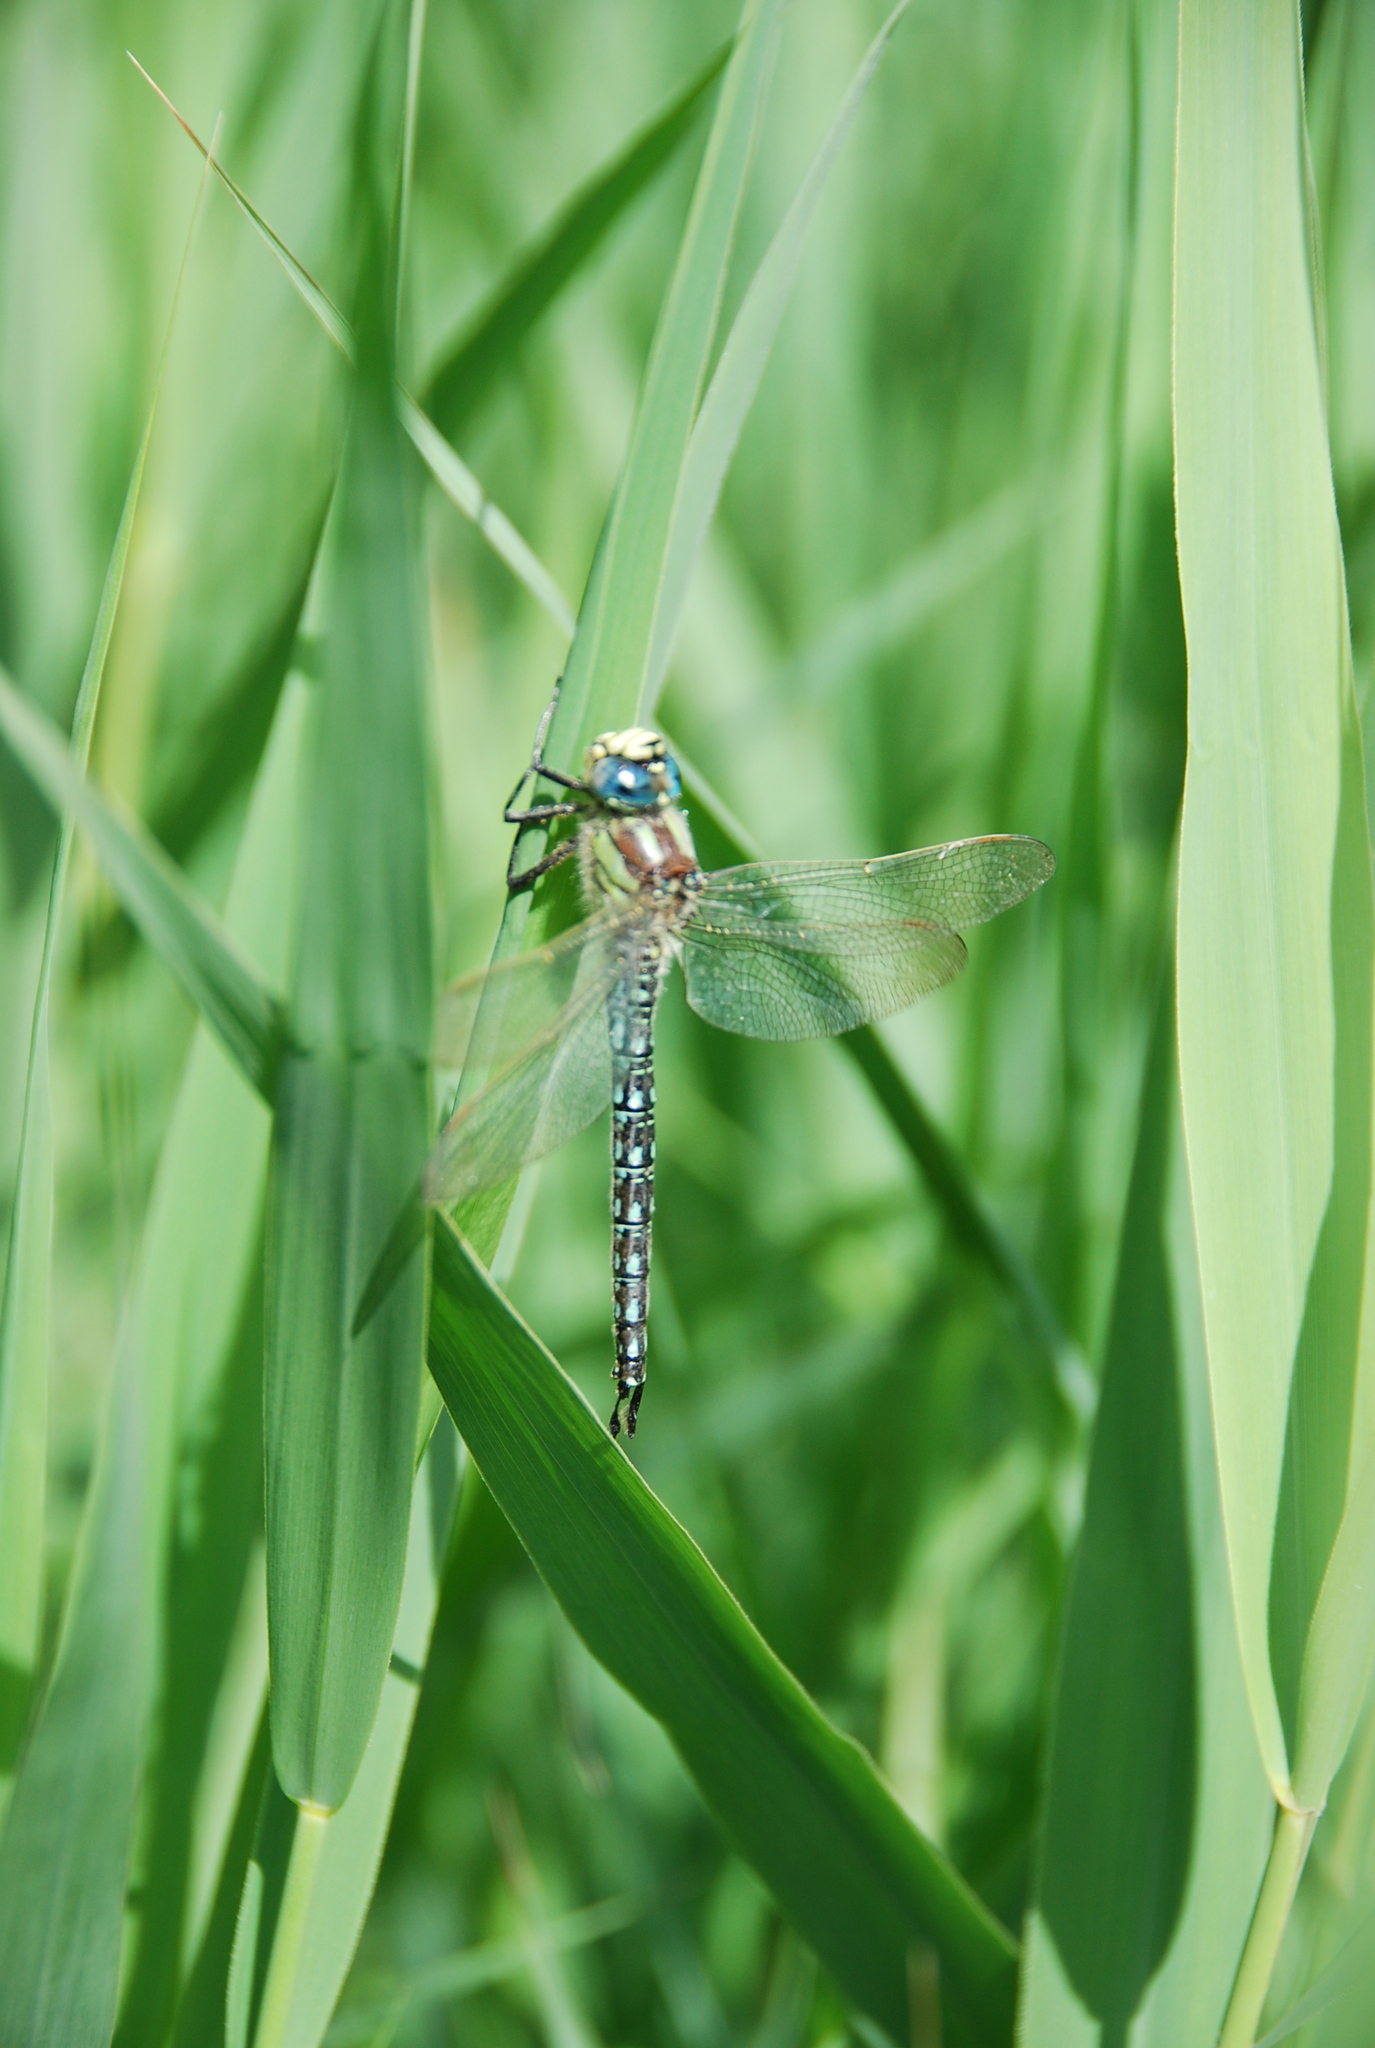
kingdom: Animalia
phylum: Arthropoda
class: Insecta
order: Odonata
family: Aeshnidae
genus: Brachytron
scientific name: Brachytron pratense
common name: Hairy hawker
